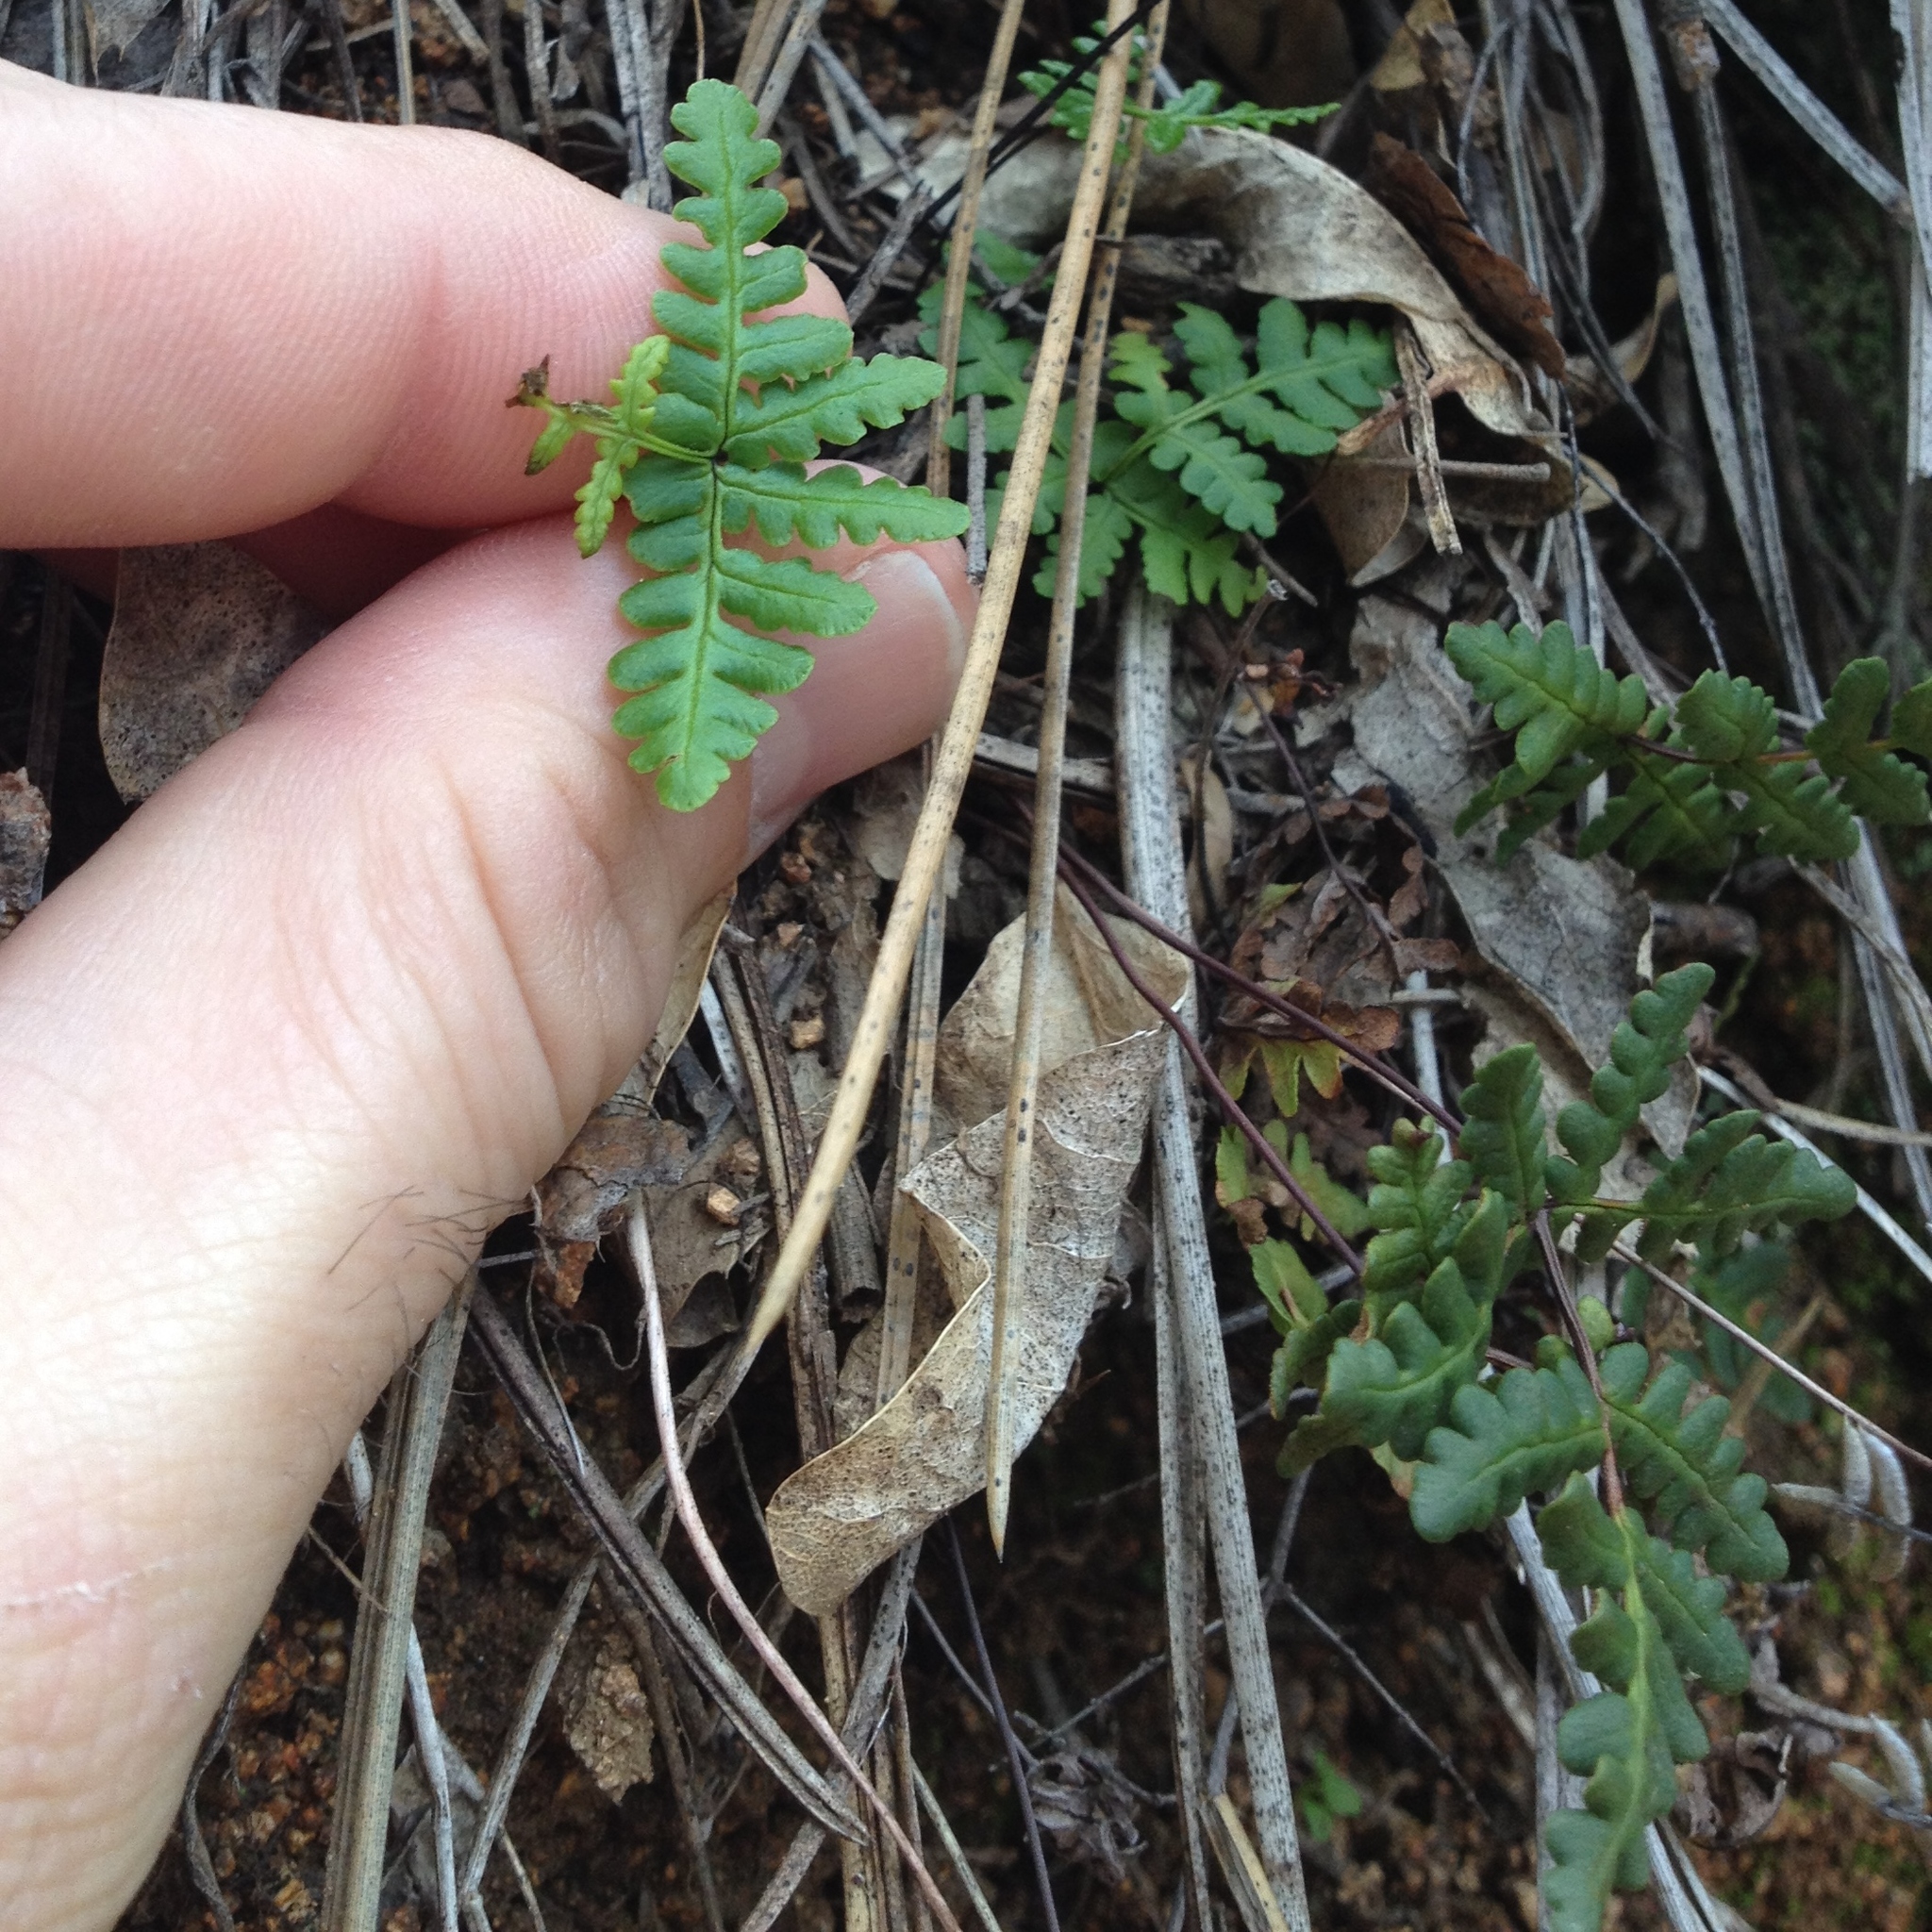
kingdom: Plantae
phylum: Tracheophyta
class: Polypodiopsida
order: Polypodiales
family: Pteridaceae
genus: Pentagramma
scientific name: Pentagramma triangularis
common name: Gold fern
